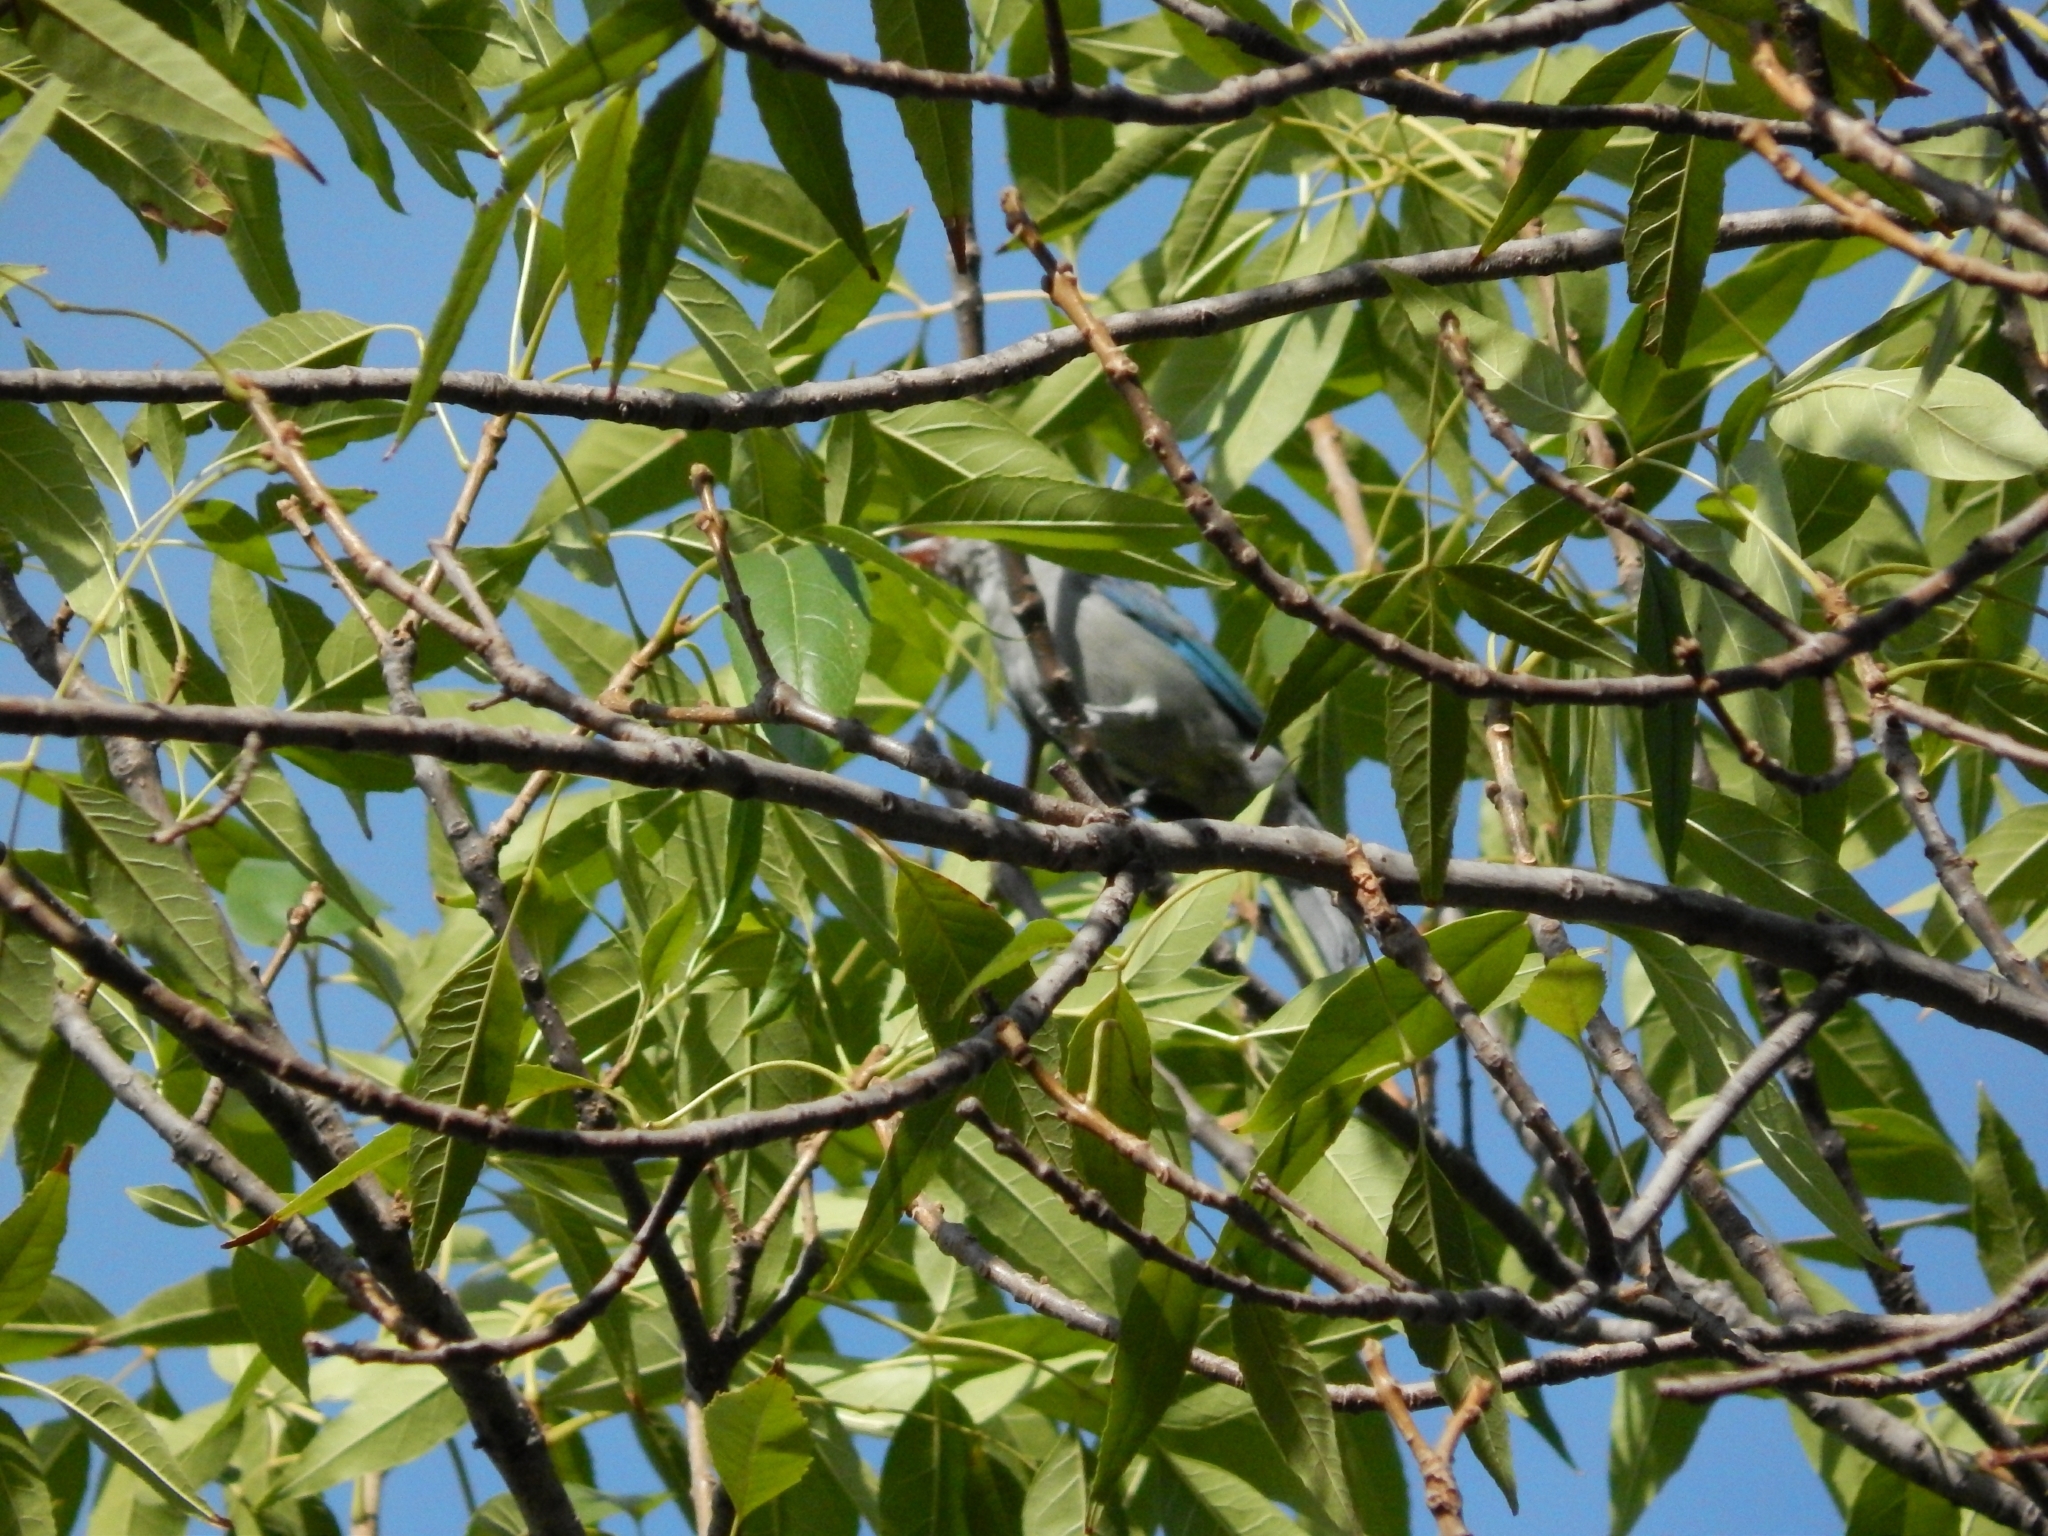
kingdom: Animalia
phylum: Chordata
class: Aves
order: Passeriformes
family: Thraupidae
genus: Thraupis
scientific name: Thraupis episcopus
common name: Blue-grey tanager
